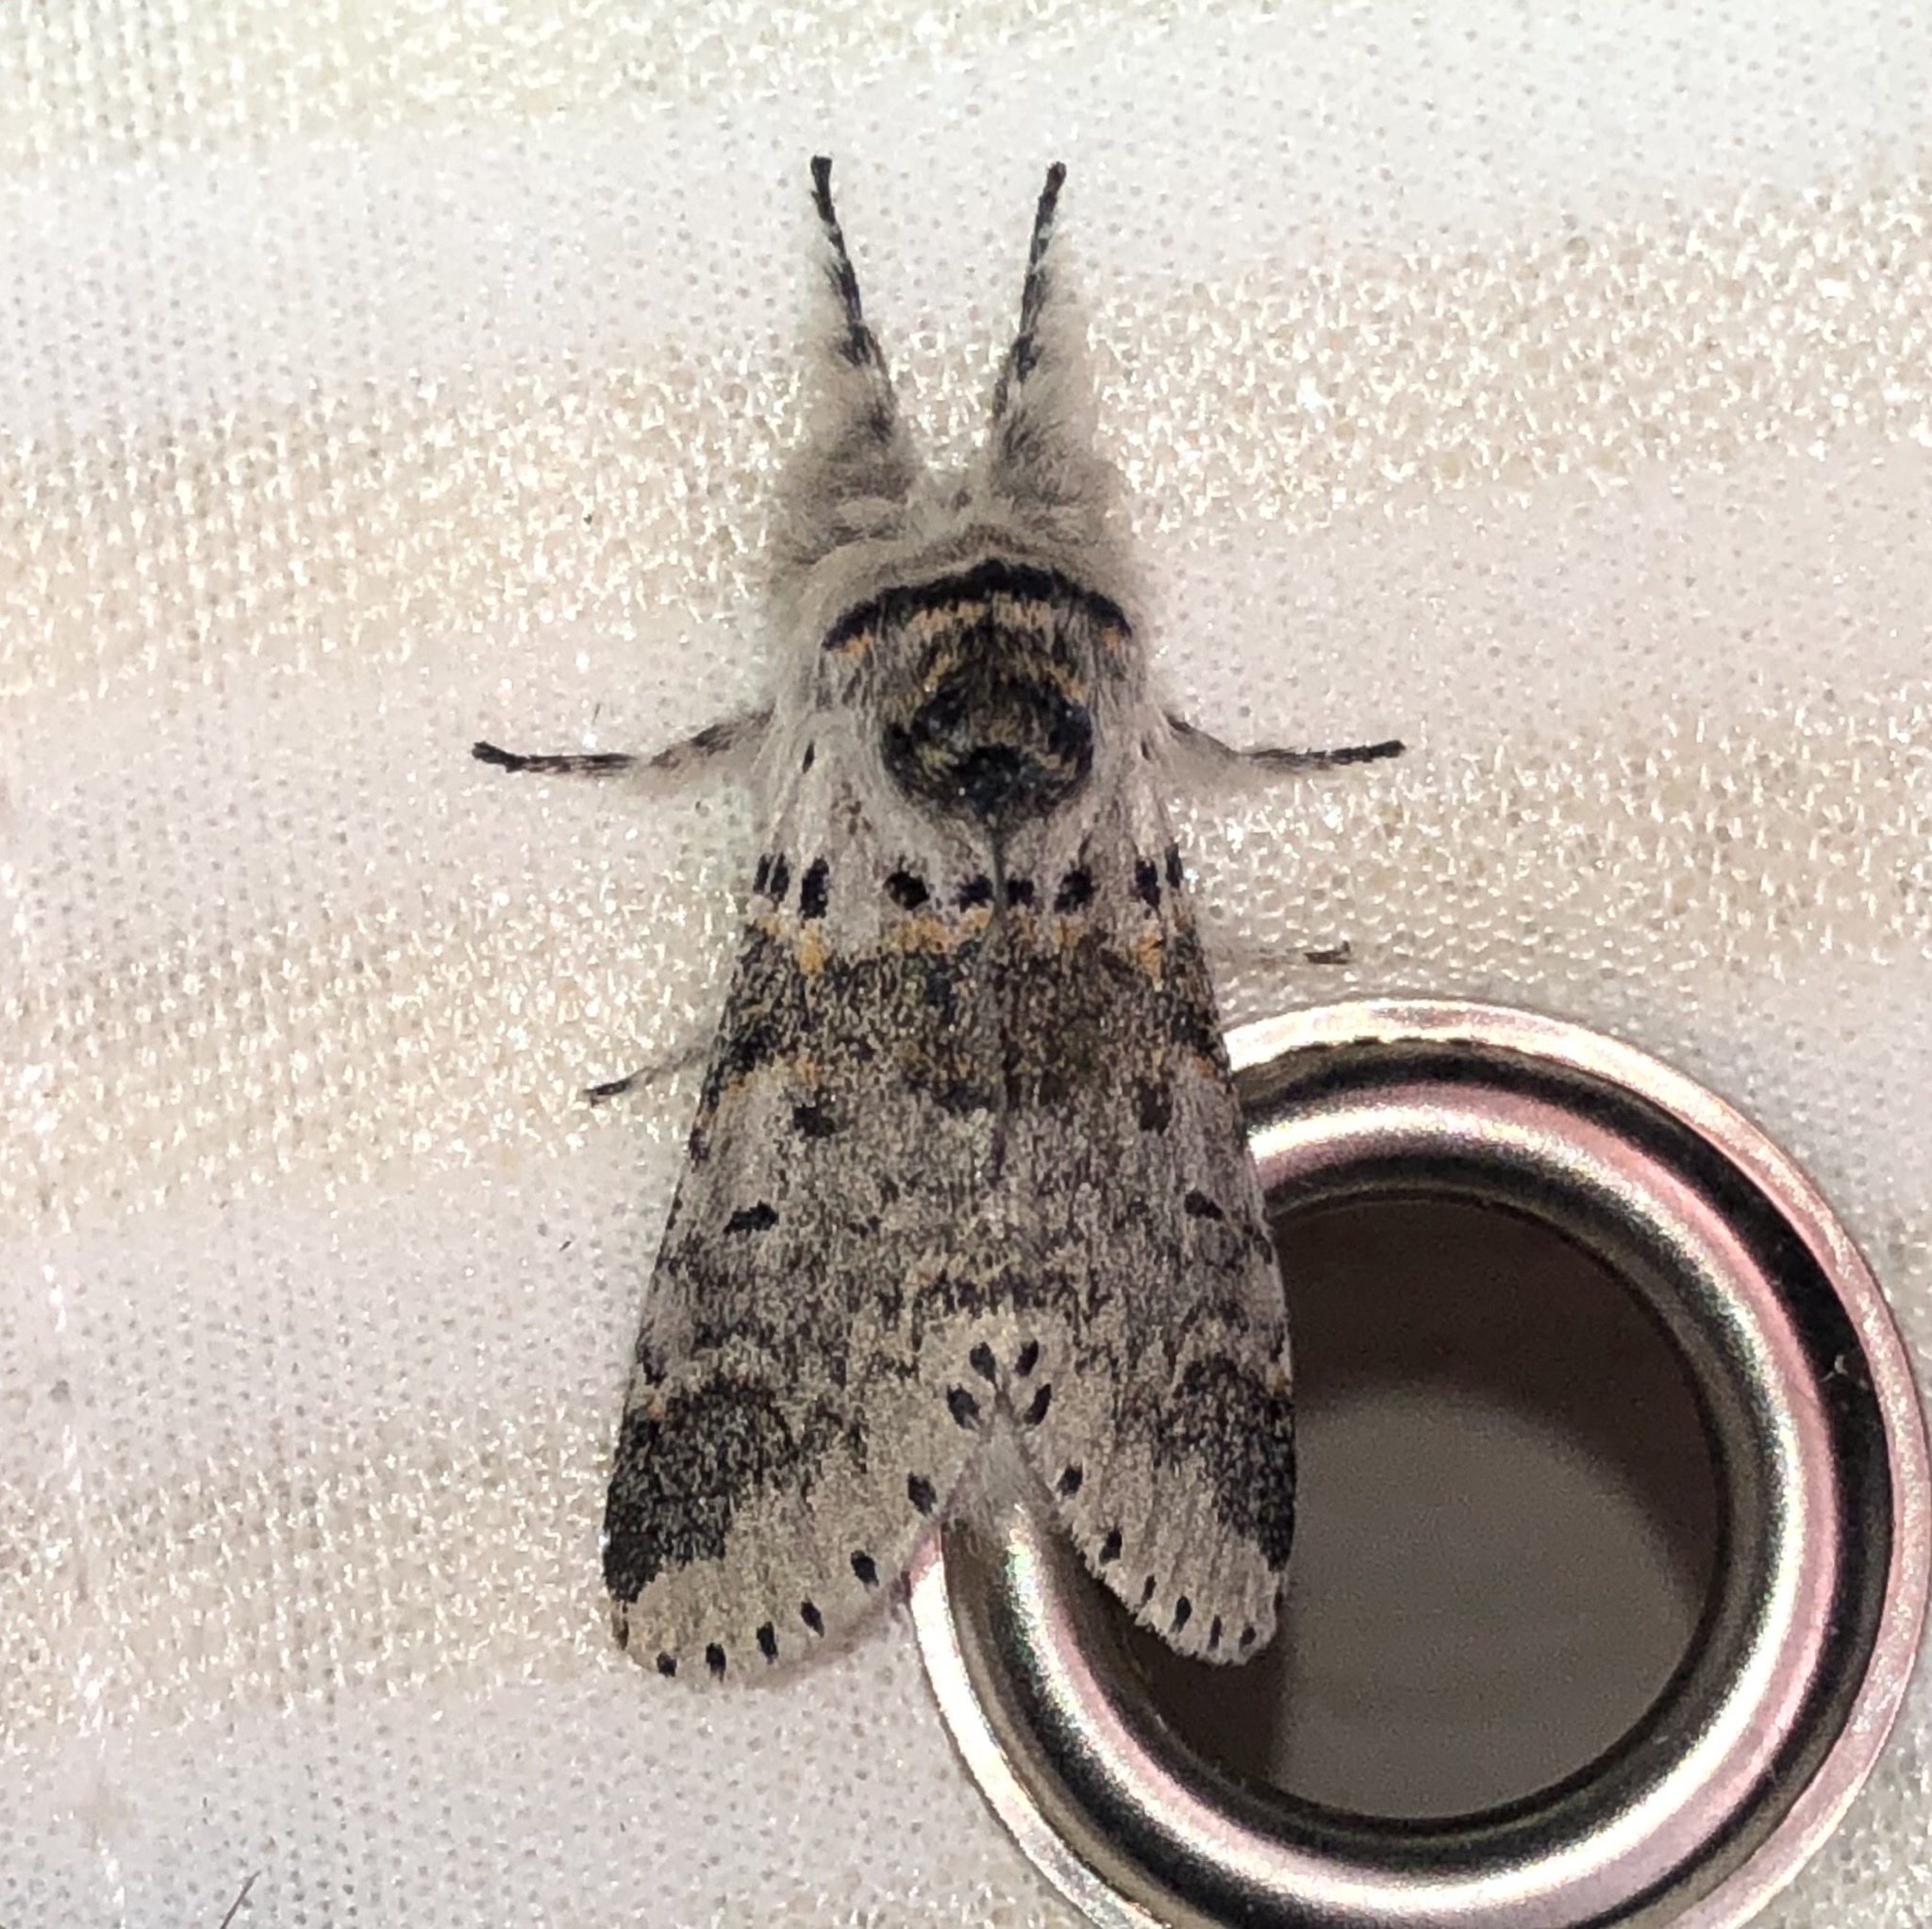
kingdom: Animalia
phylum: Arthropoda
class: Insecta
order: Lepidoptera
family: Notodontidae
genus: Furcula
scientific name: Furcula occidentalis
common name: Western furcula moth
